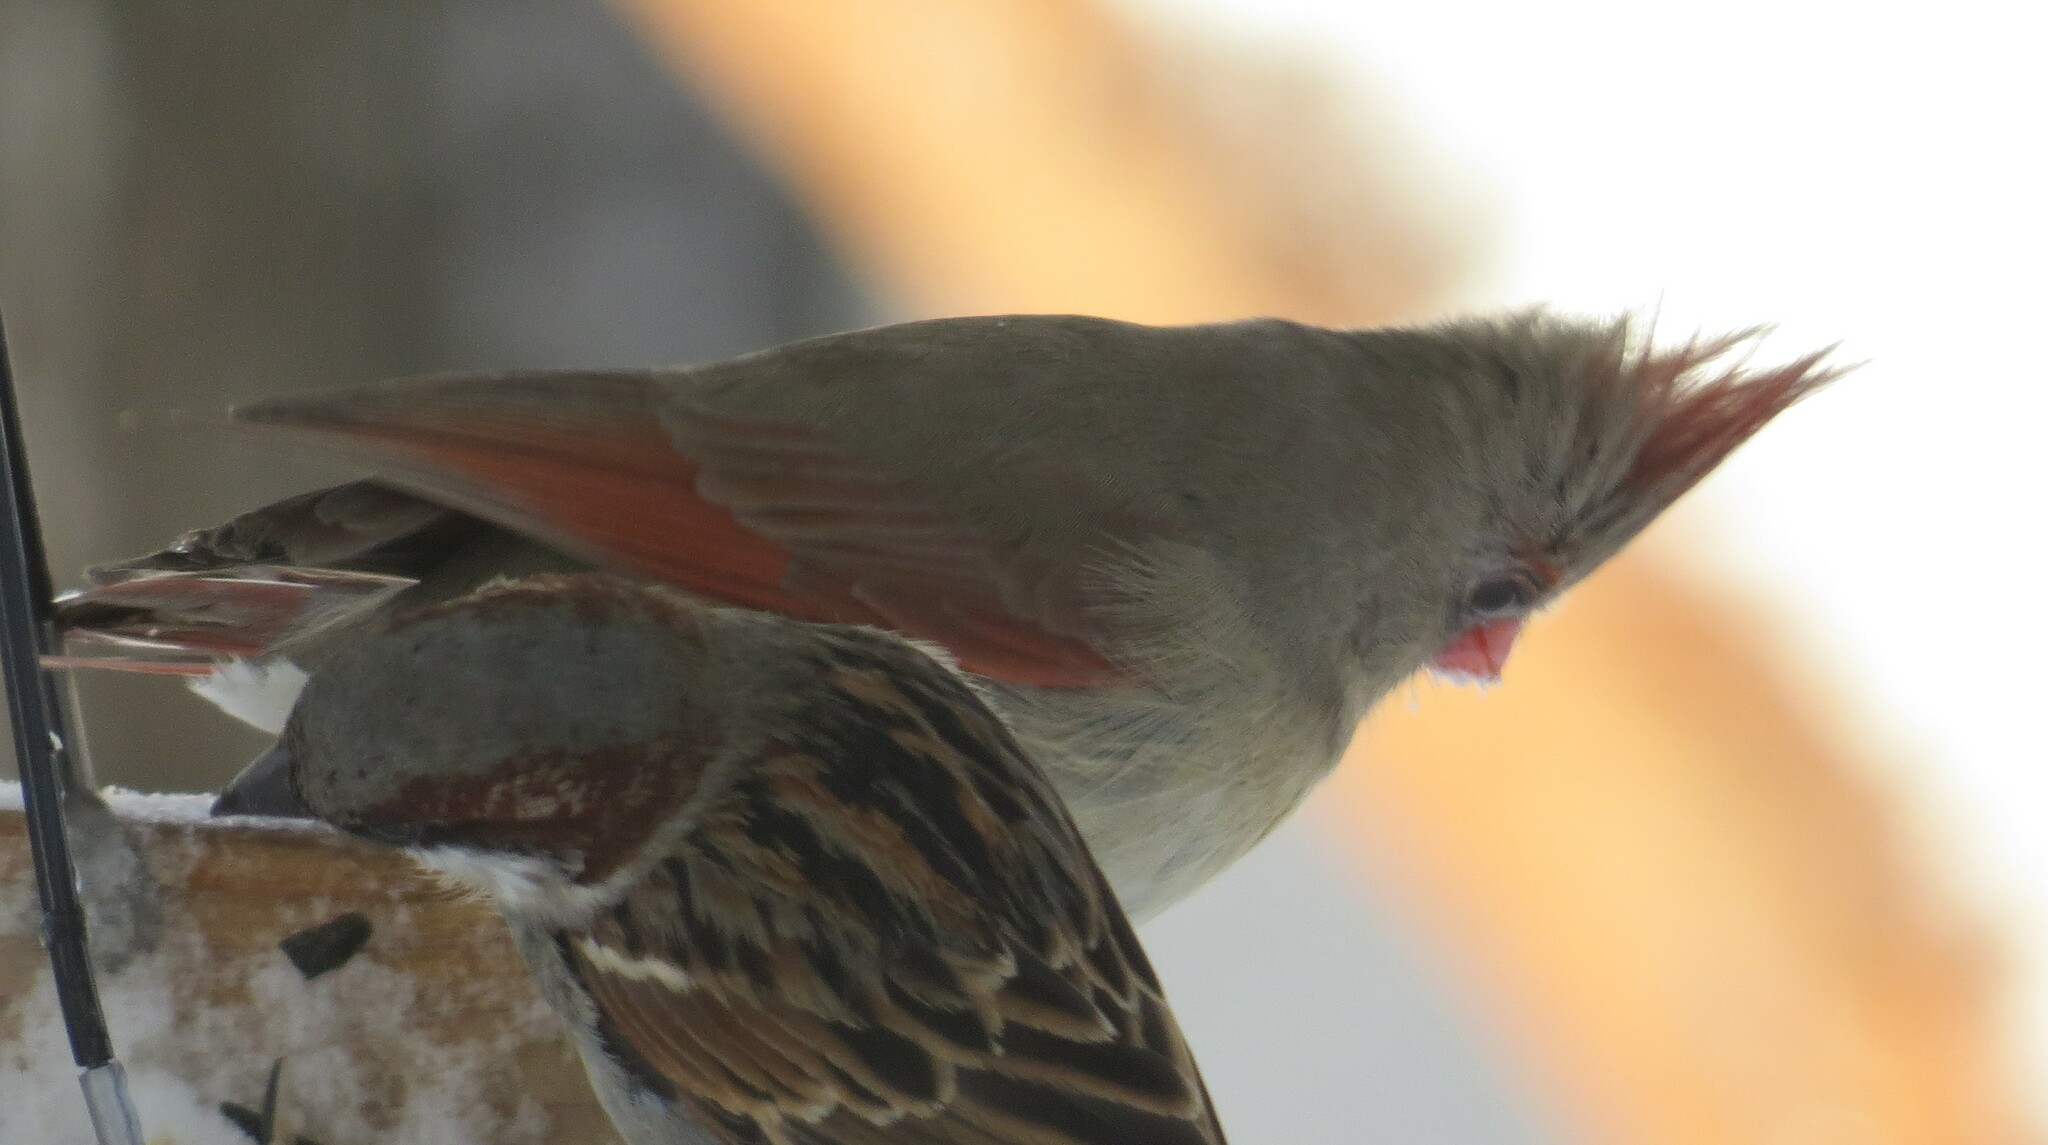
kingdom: Animalia
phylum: Chordata
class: Aves
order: Passeriformes
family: Cardinalidae
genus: Cardinalis
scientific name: Cardinalis cardinalis
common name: Northern cardinal
